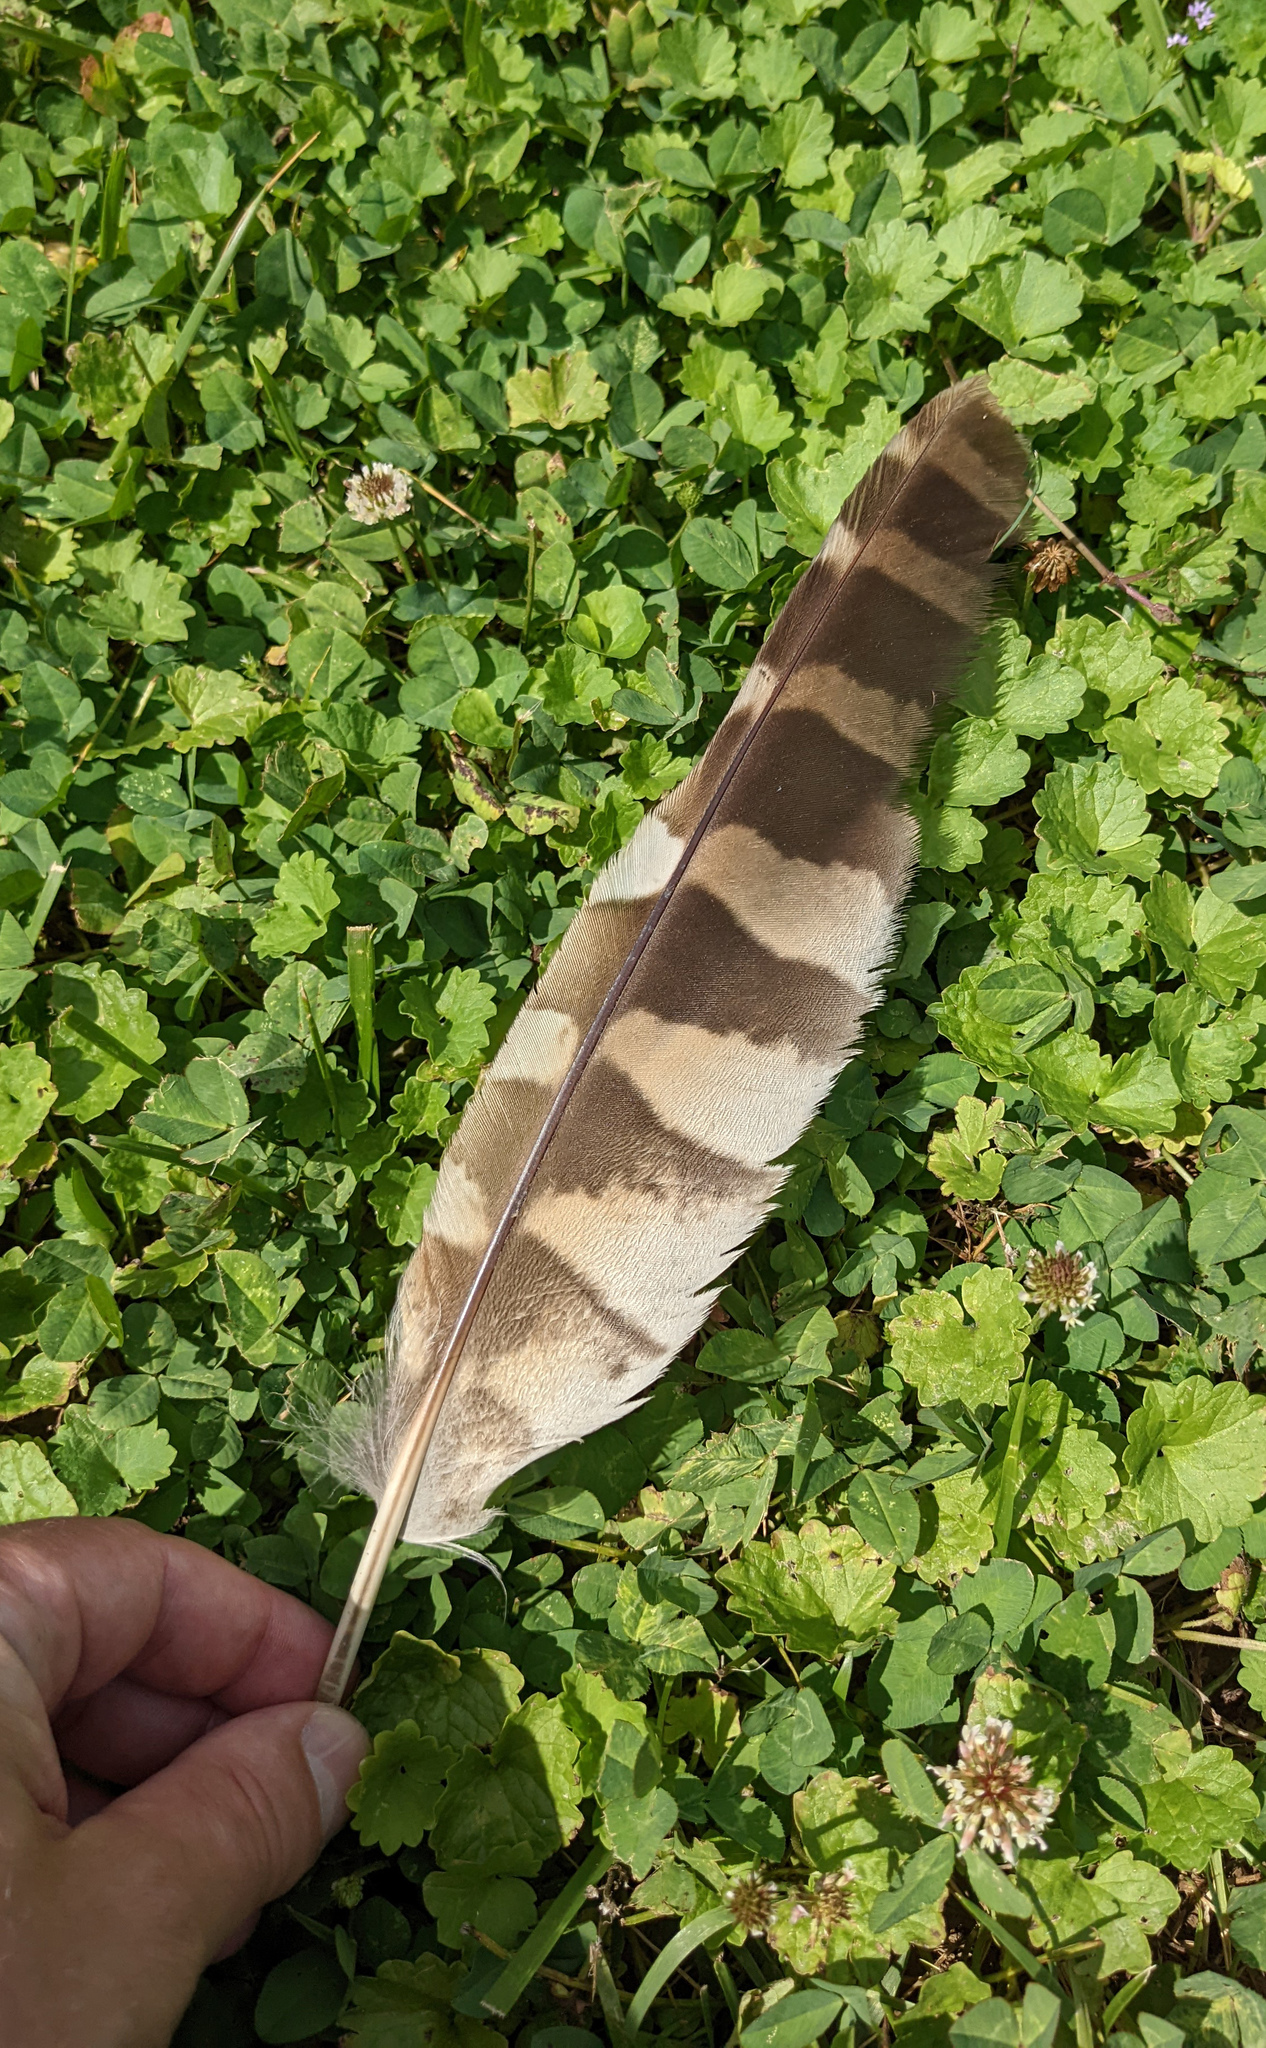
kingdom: Animalia
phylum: Chordata
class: Aves
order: Strigiformes
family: Strigidae
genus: Strix
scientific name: Strix varia
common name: Barred owl
